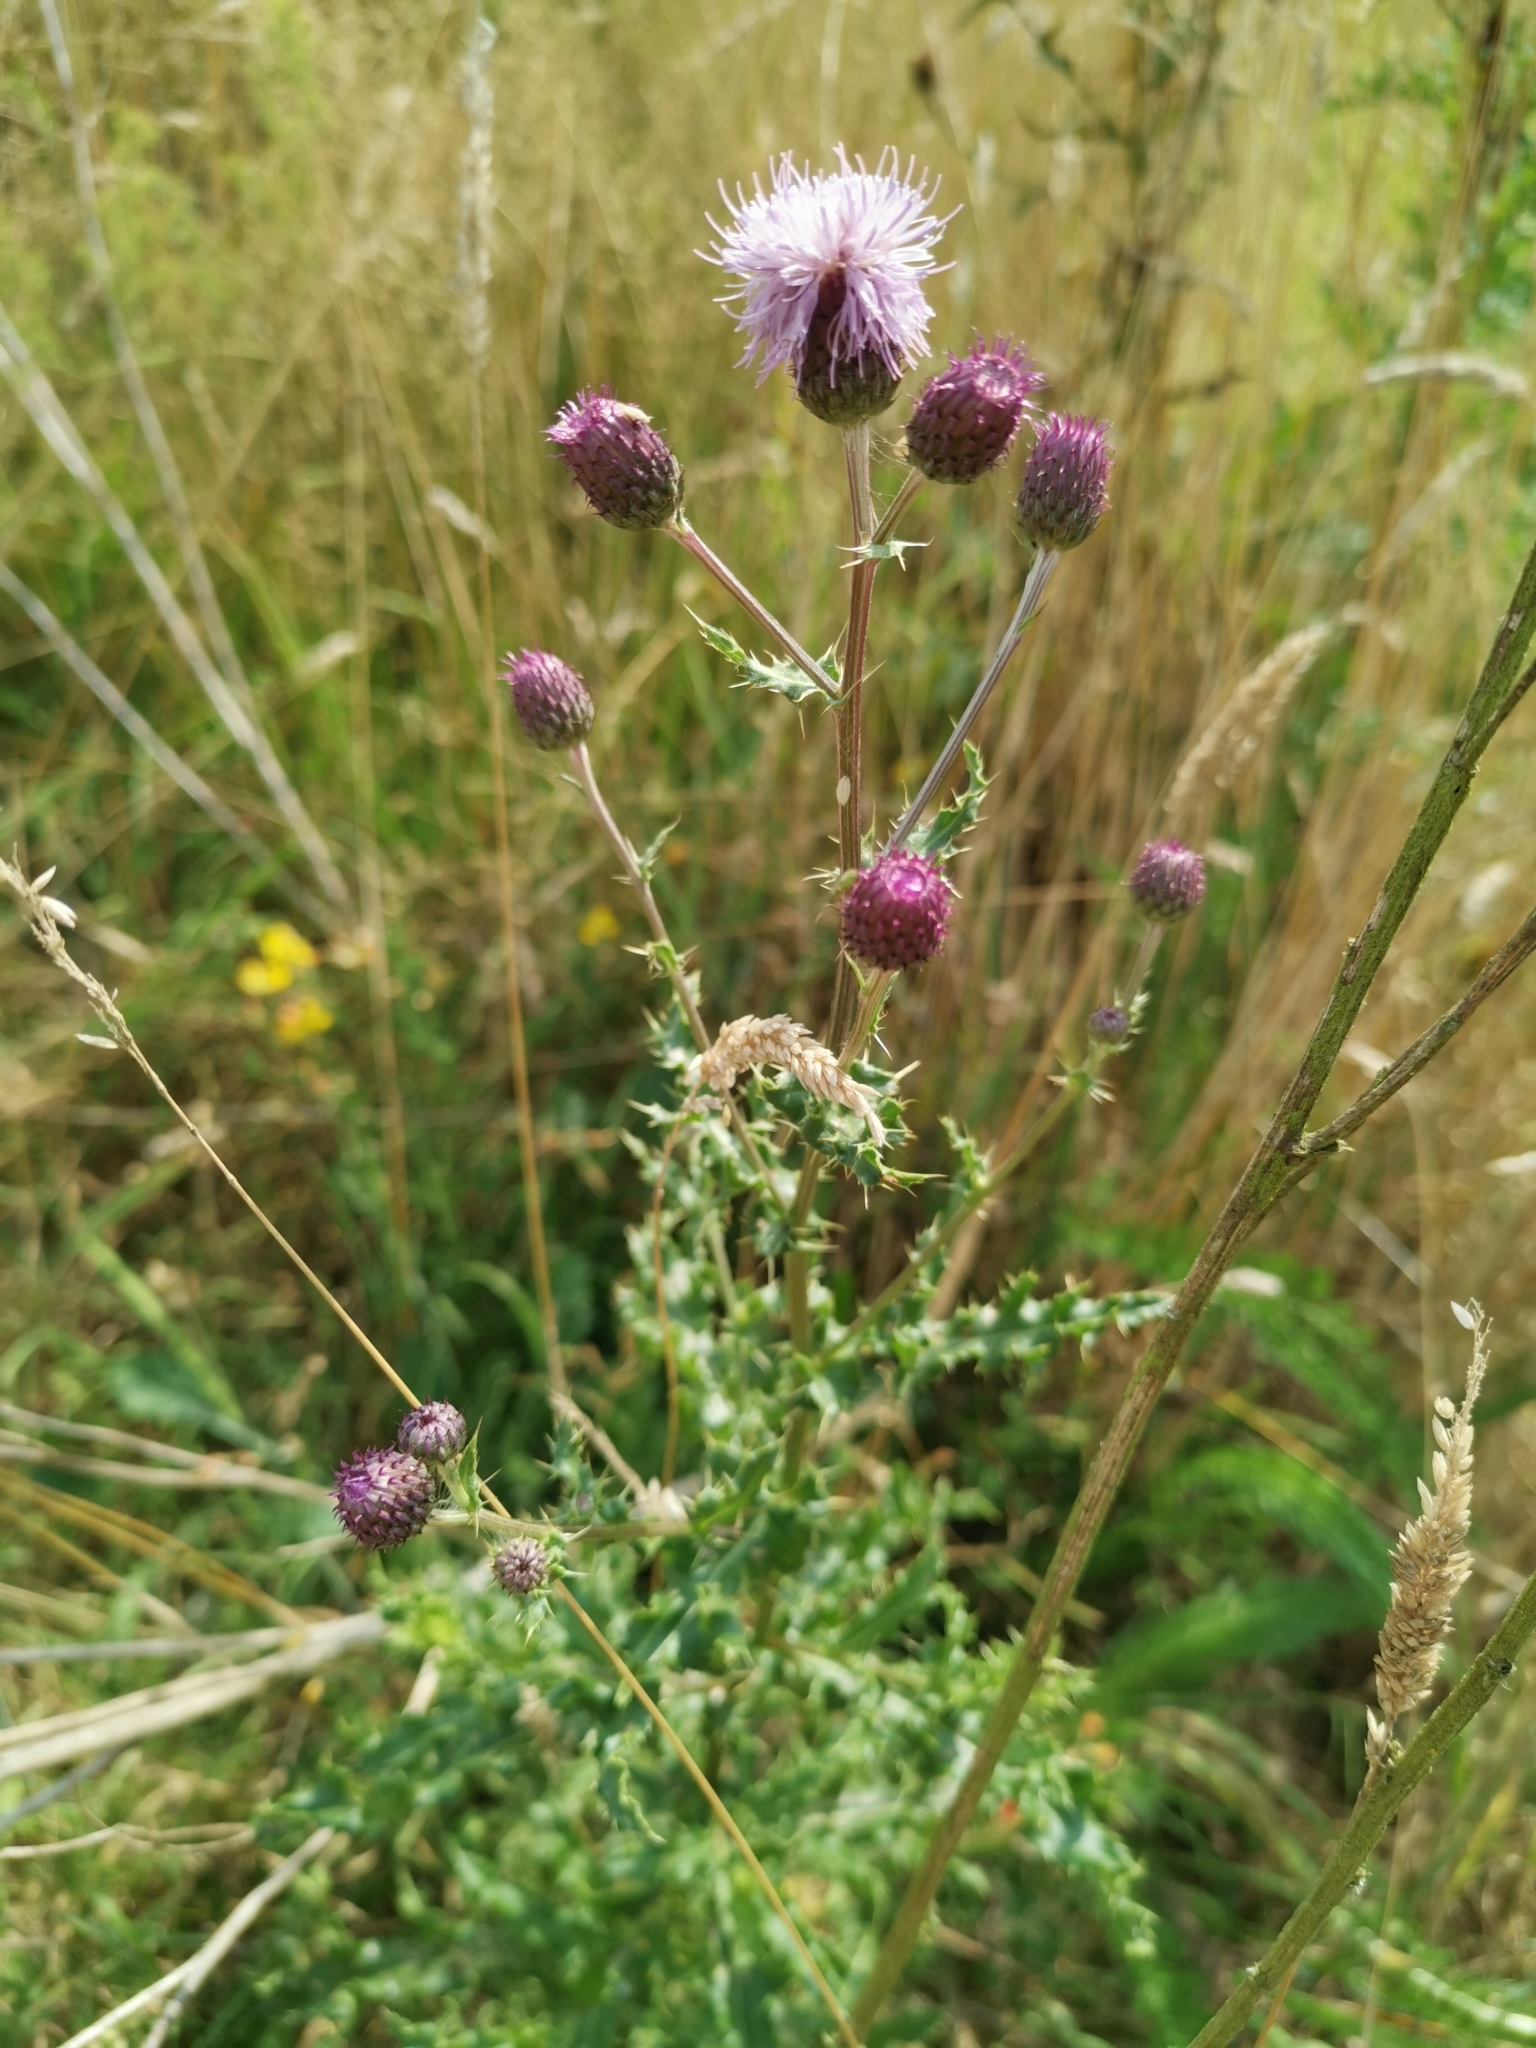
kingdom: Plantae
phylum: Tracheophyta
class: Magnoliopsida
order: Asterales
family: Asteraceae
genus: Cirsium
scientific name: Cirsium arvense
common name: Creeping thistle
